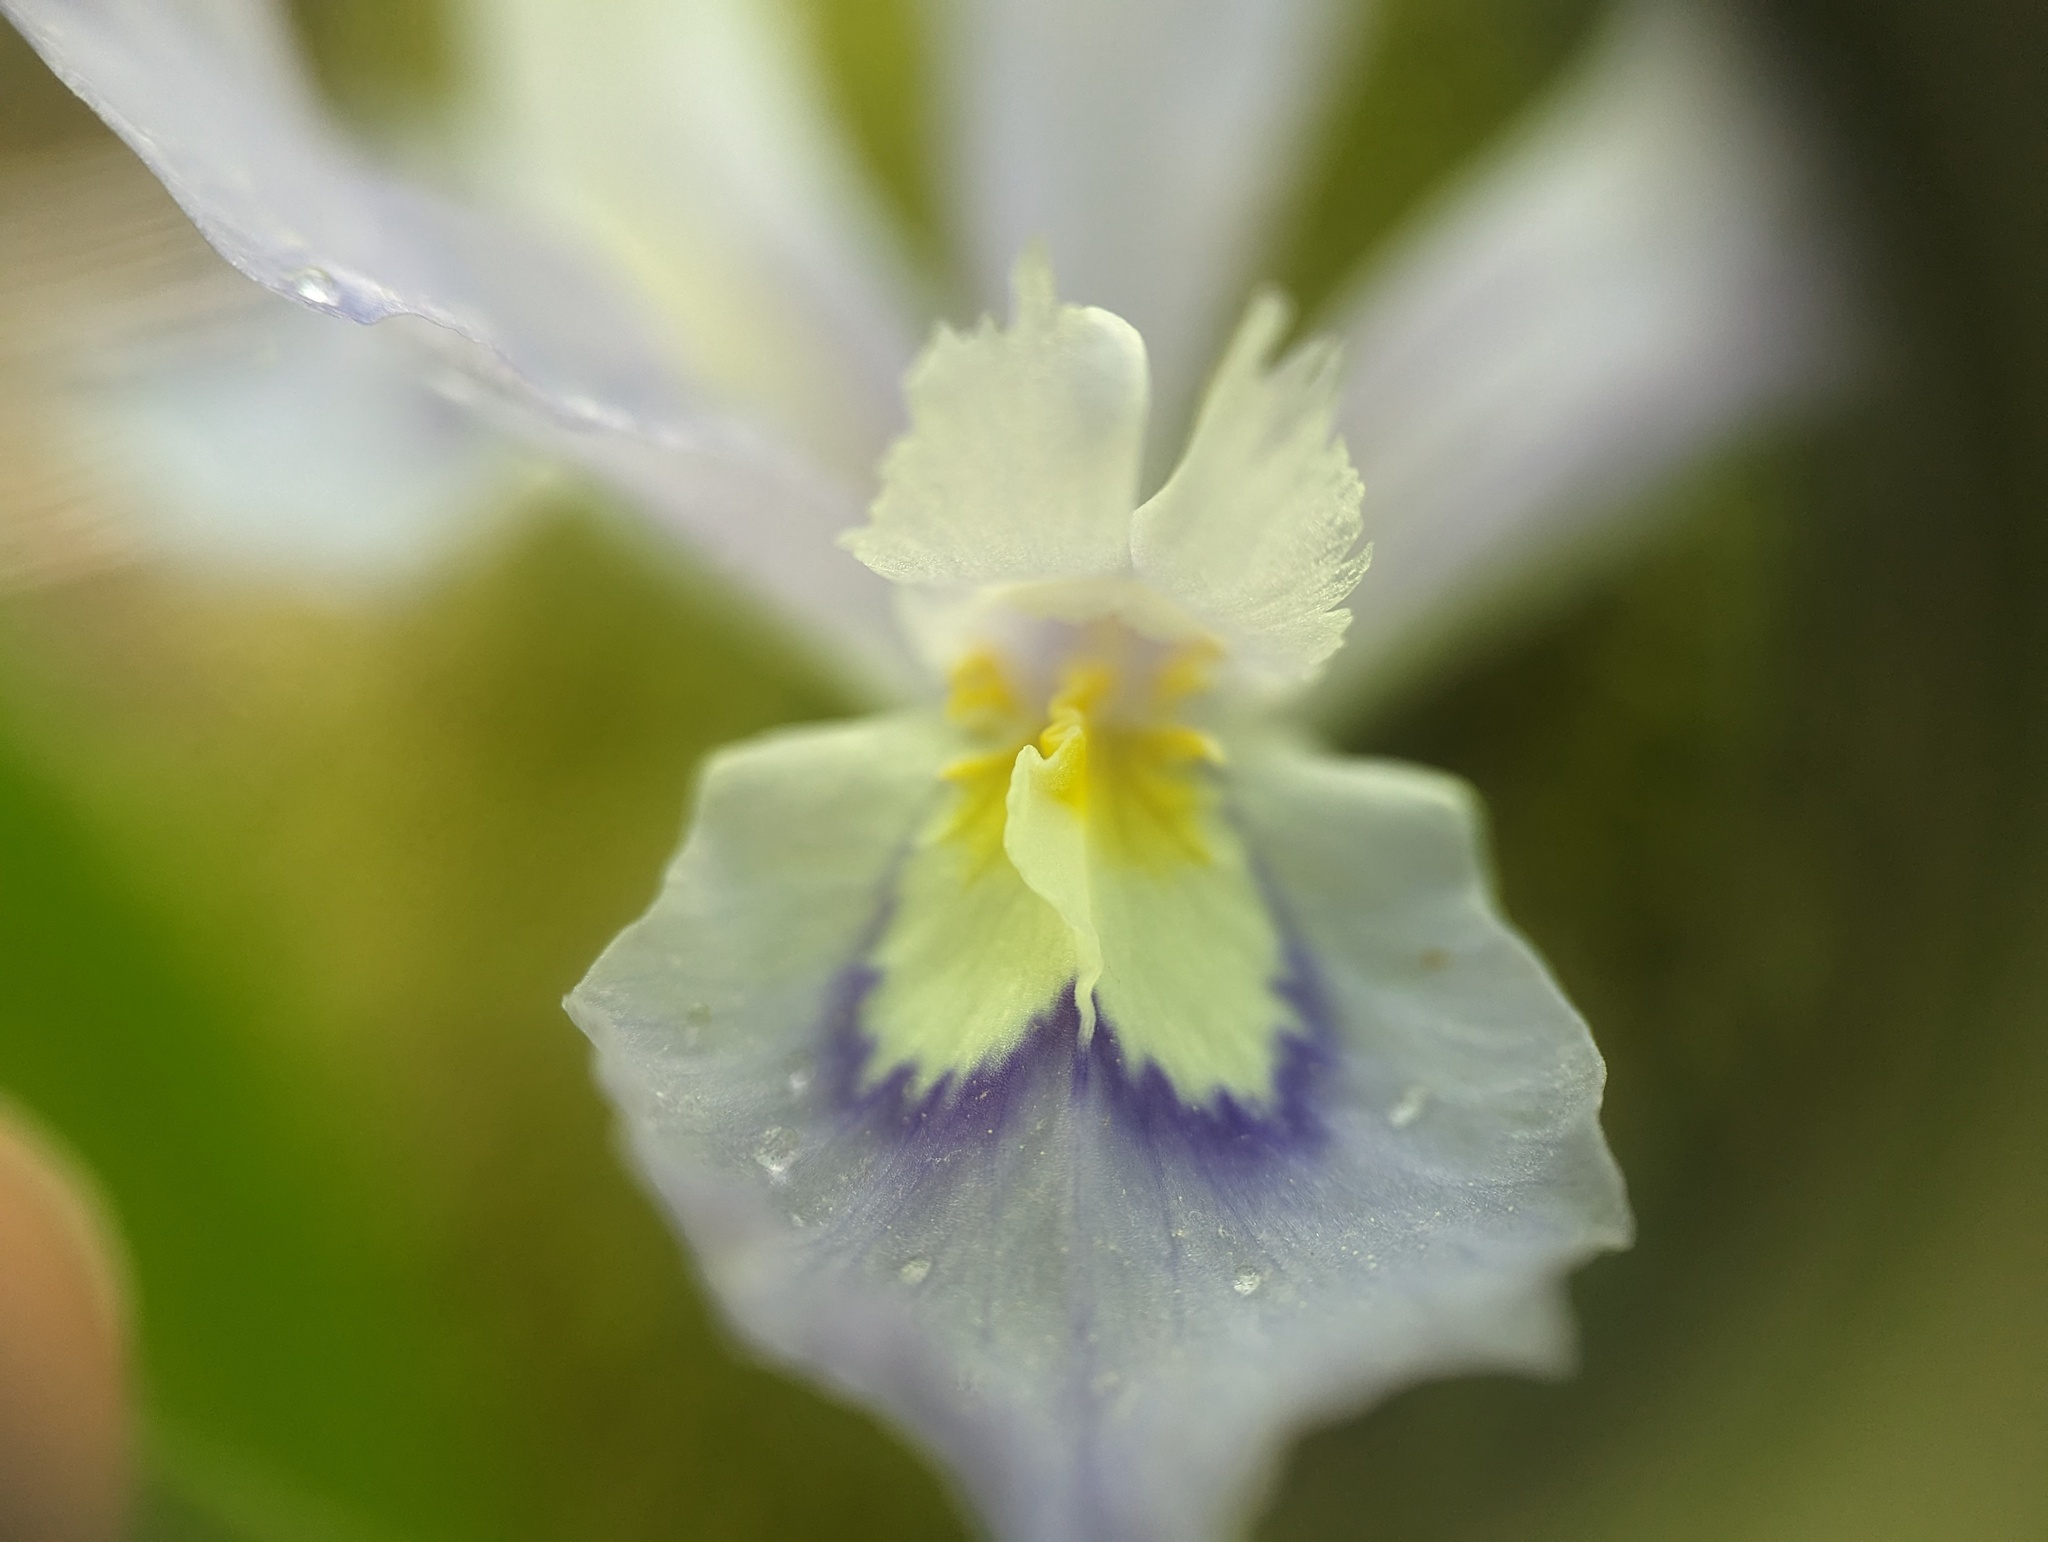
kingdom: Plantae
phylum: Tracheophyta
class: Liliopsida
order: Asparagales
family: Iridaceae
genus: Iris
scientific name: Iris cristata
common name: Crested iris
